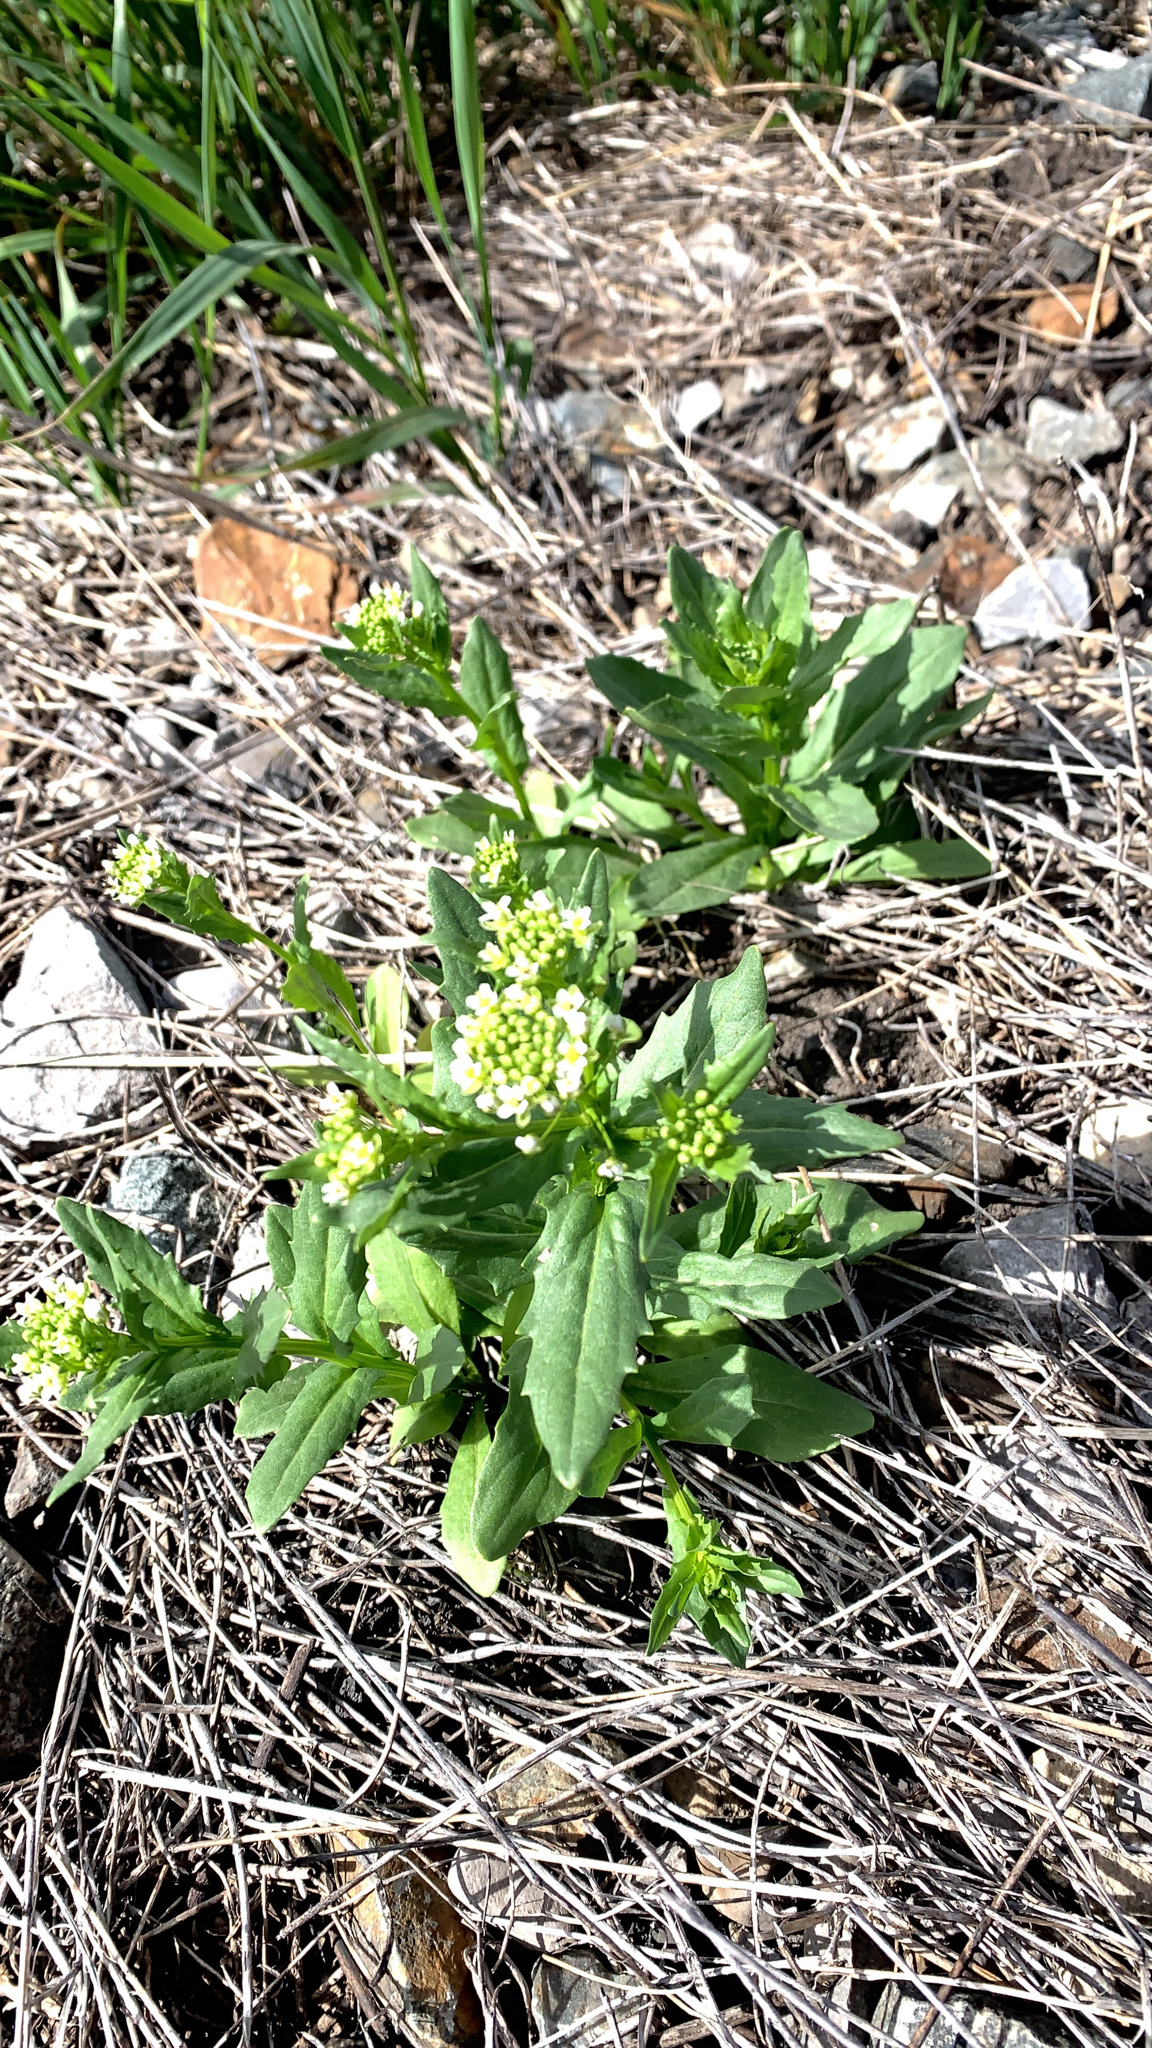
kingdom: Plantae
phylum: Tracheophyta
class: Magnoliopsida
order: Brassicales
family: Brassicaceae
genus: Thlaspi
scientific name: Thlaspi arvense
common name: Field pennycress
